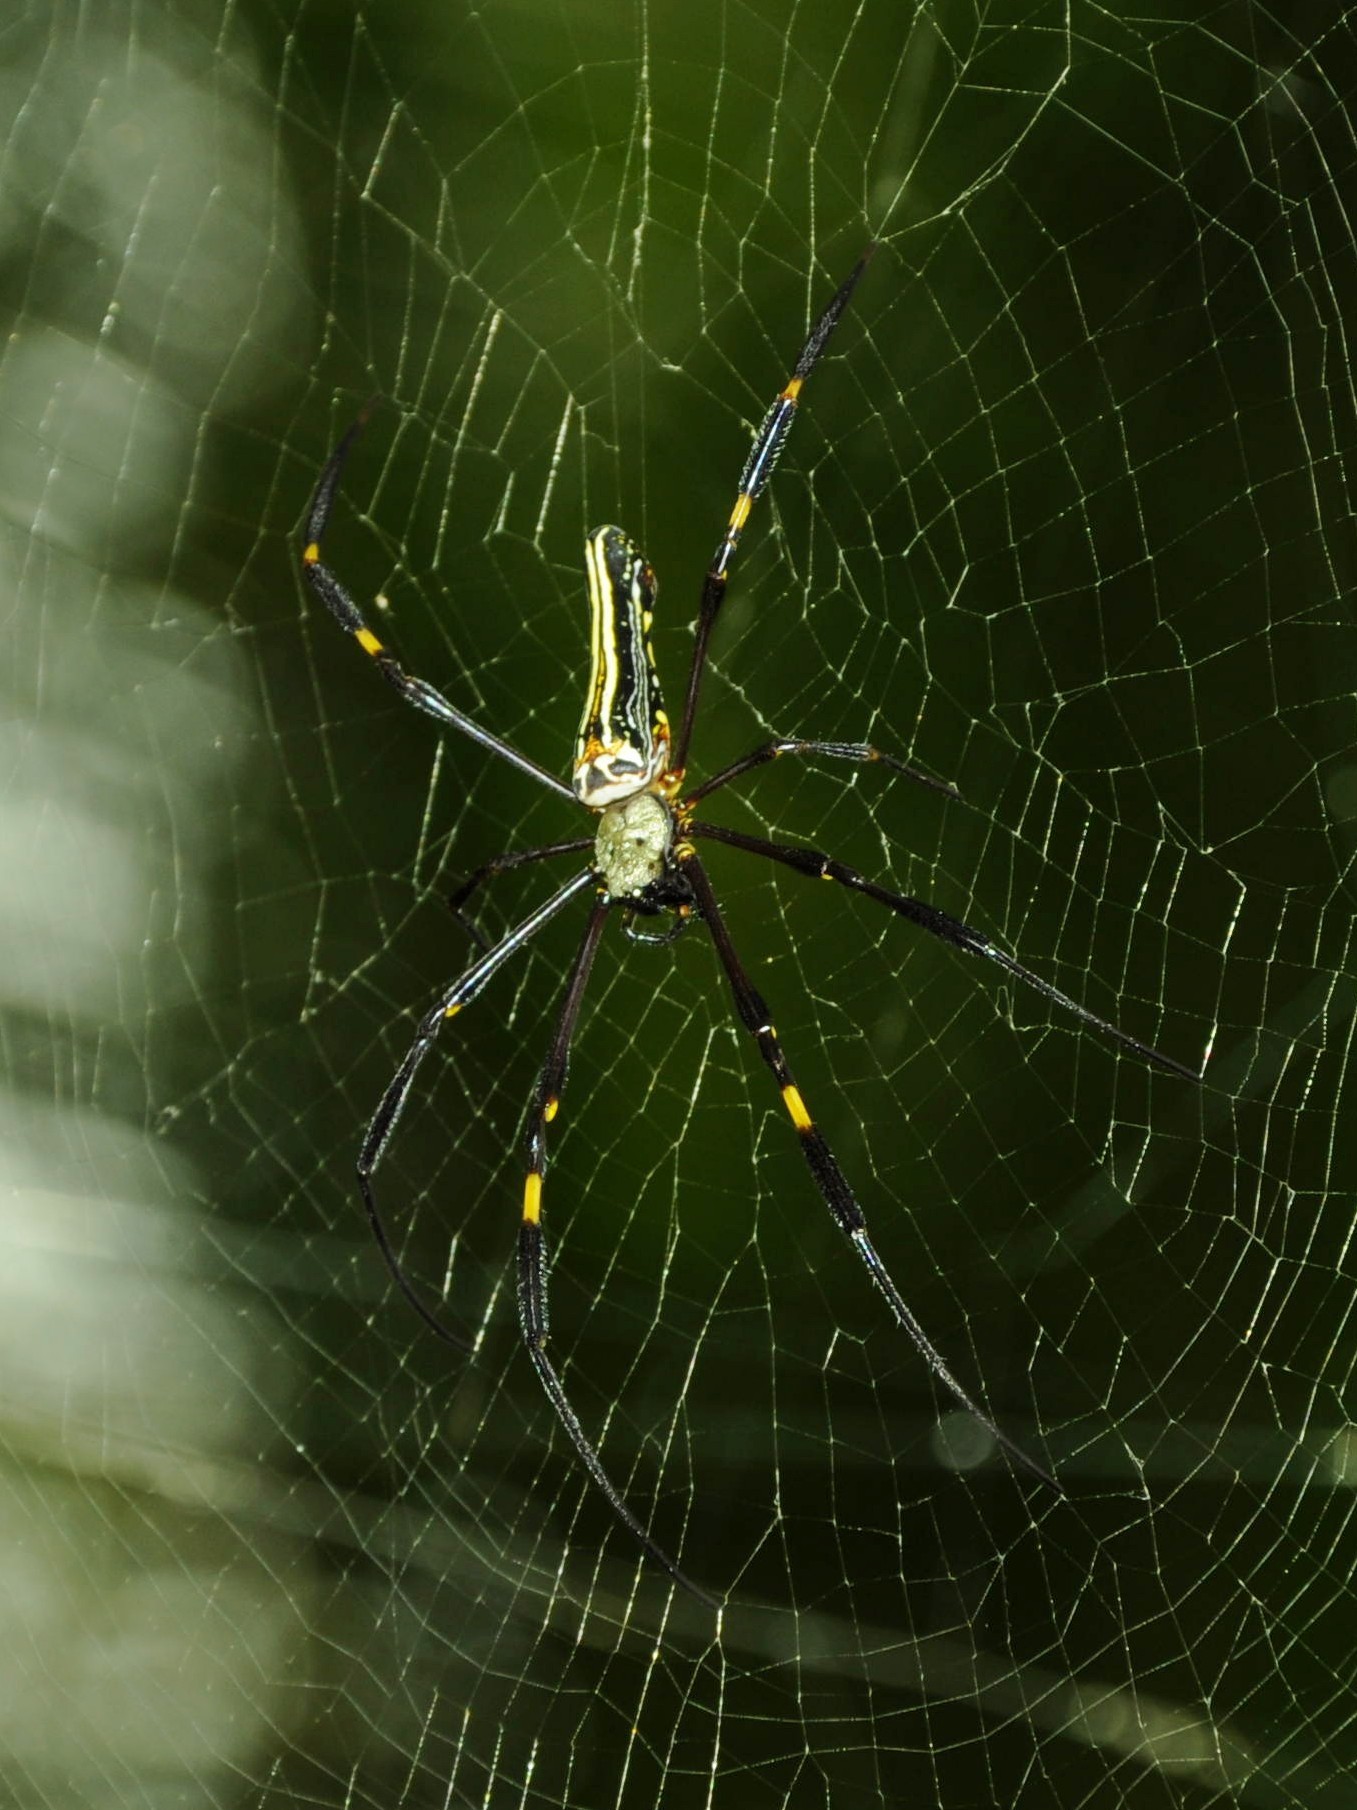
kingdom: Animalia
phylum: Arthropoda
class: Arachnida
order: Araneae
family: Araneidae
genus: Nephila
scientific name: Nephila pilipes
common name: Giant golden orb weaver
